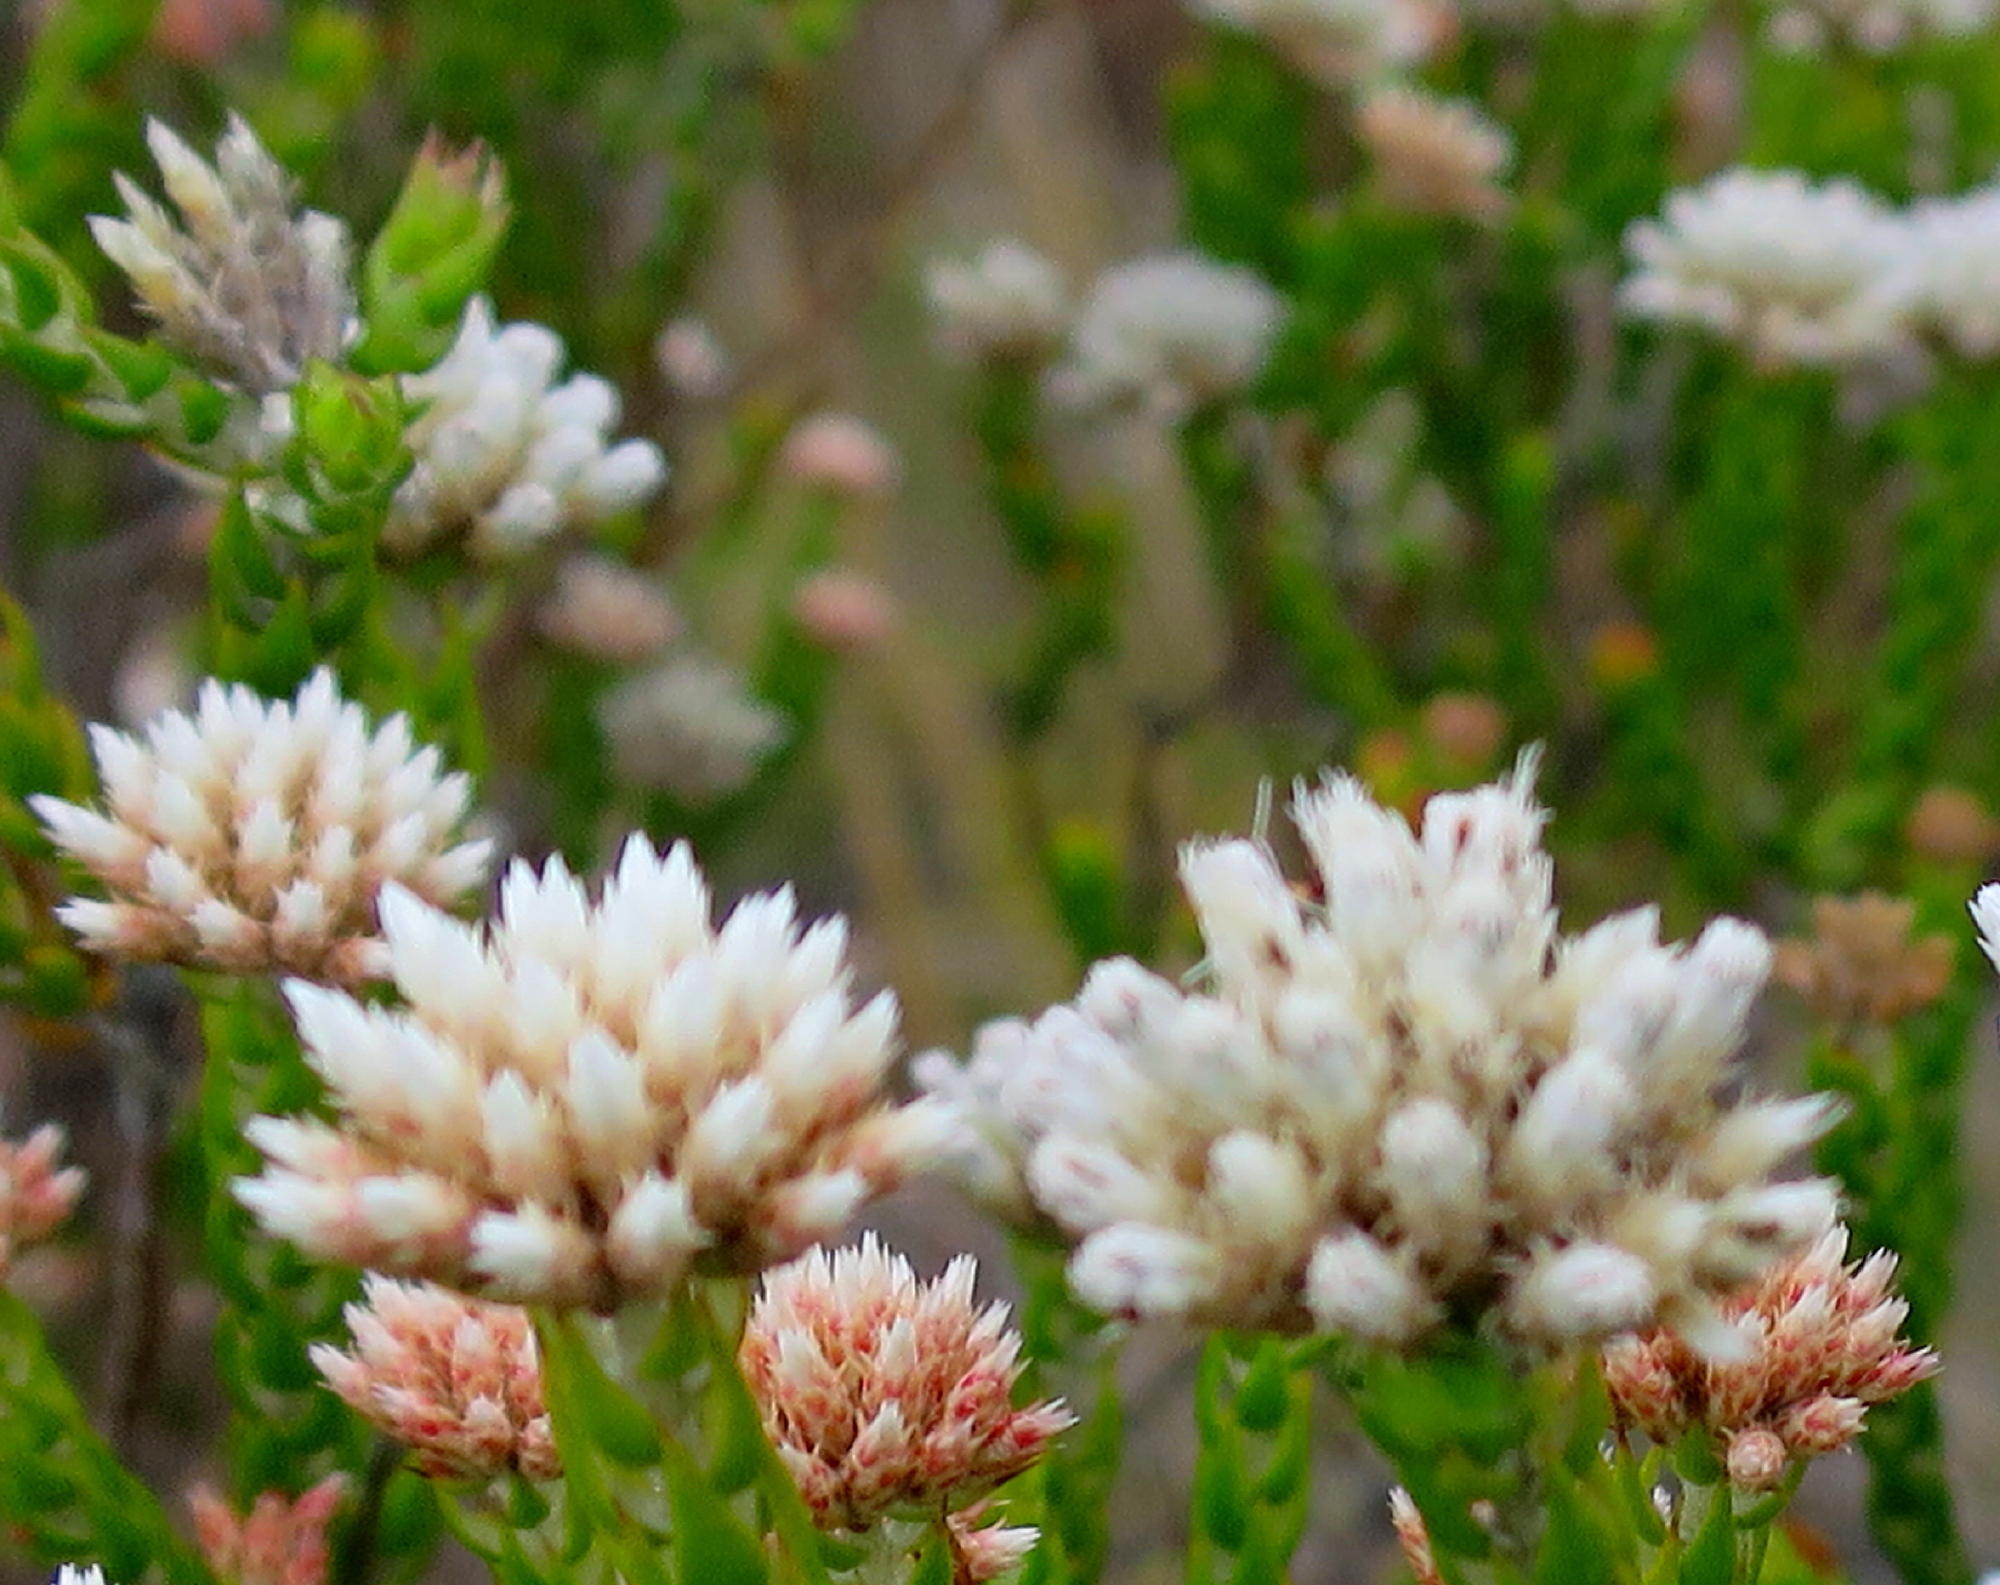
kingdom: Plantae
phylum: Tracheophyta
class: Magnoliopsida
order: Asterales
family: Asteraceae
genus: Metalasia
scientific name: Metalasia pulcherrima
